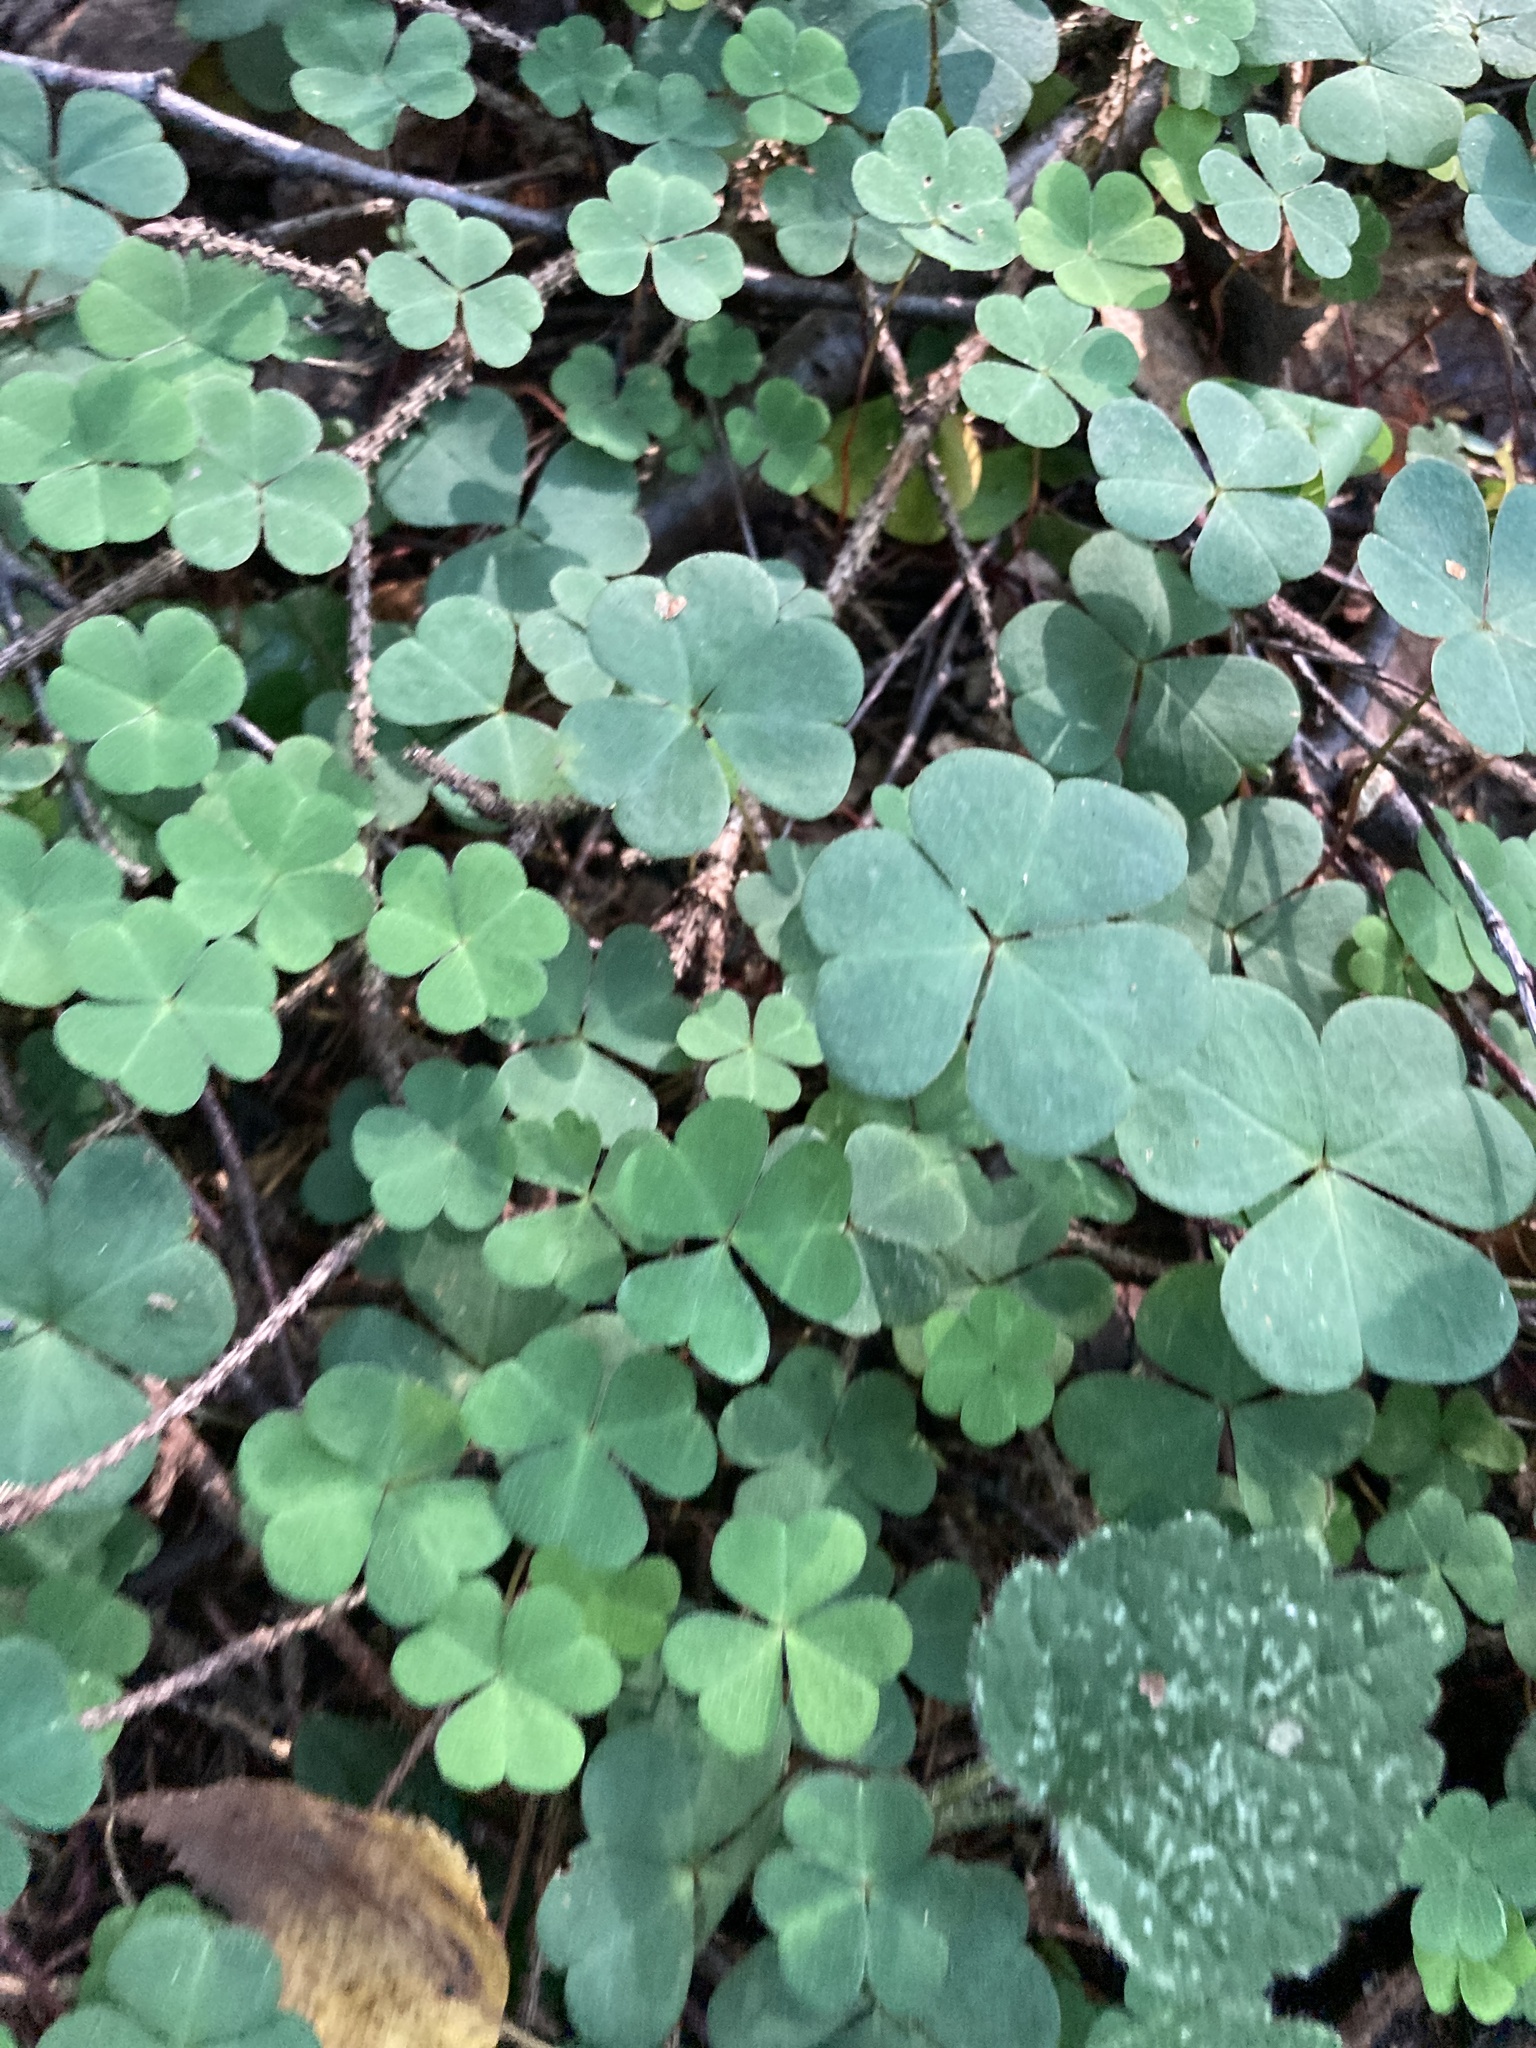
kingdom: Plantae
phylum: Tracheophyta
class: Magnoliopsida
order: Oxalidales
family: Oxalidaceae
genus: Oxalis
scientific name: Oxalis acetosella
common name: Wood-sorrel
